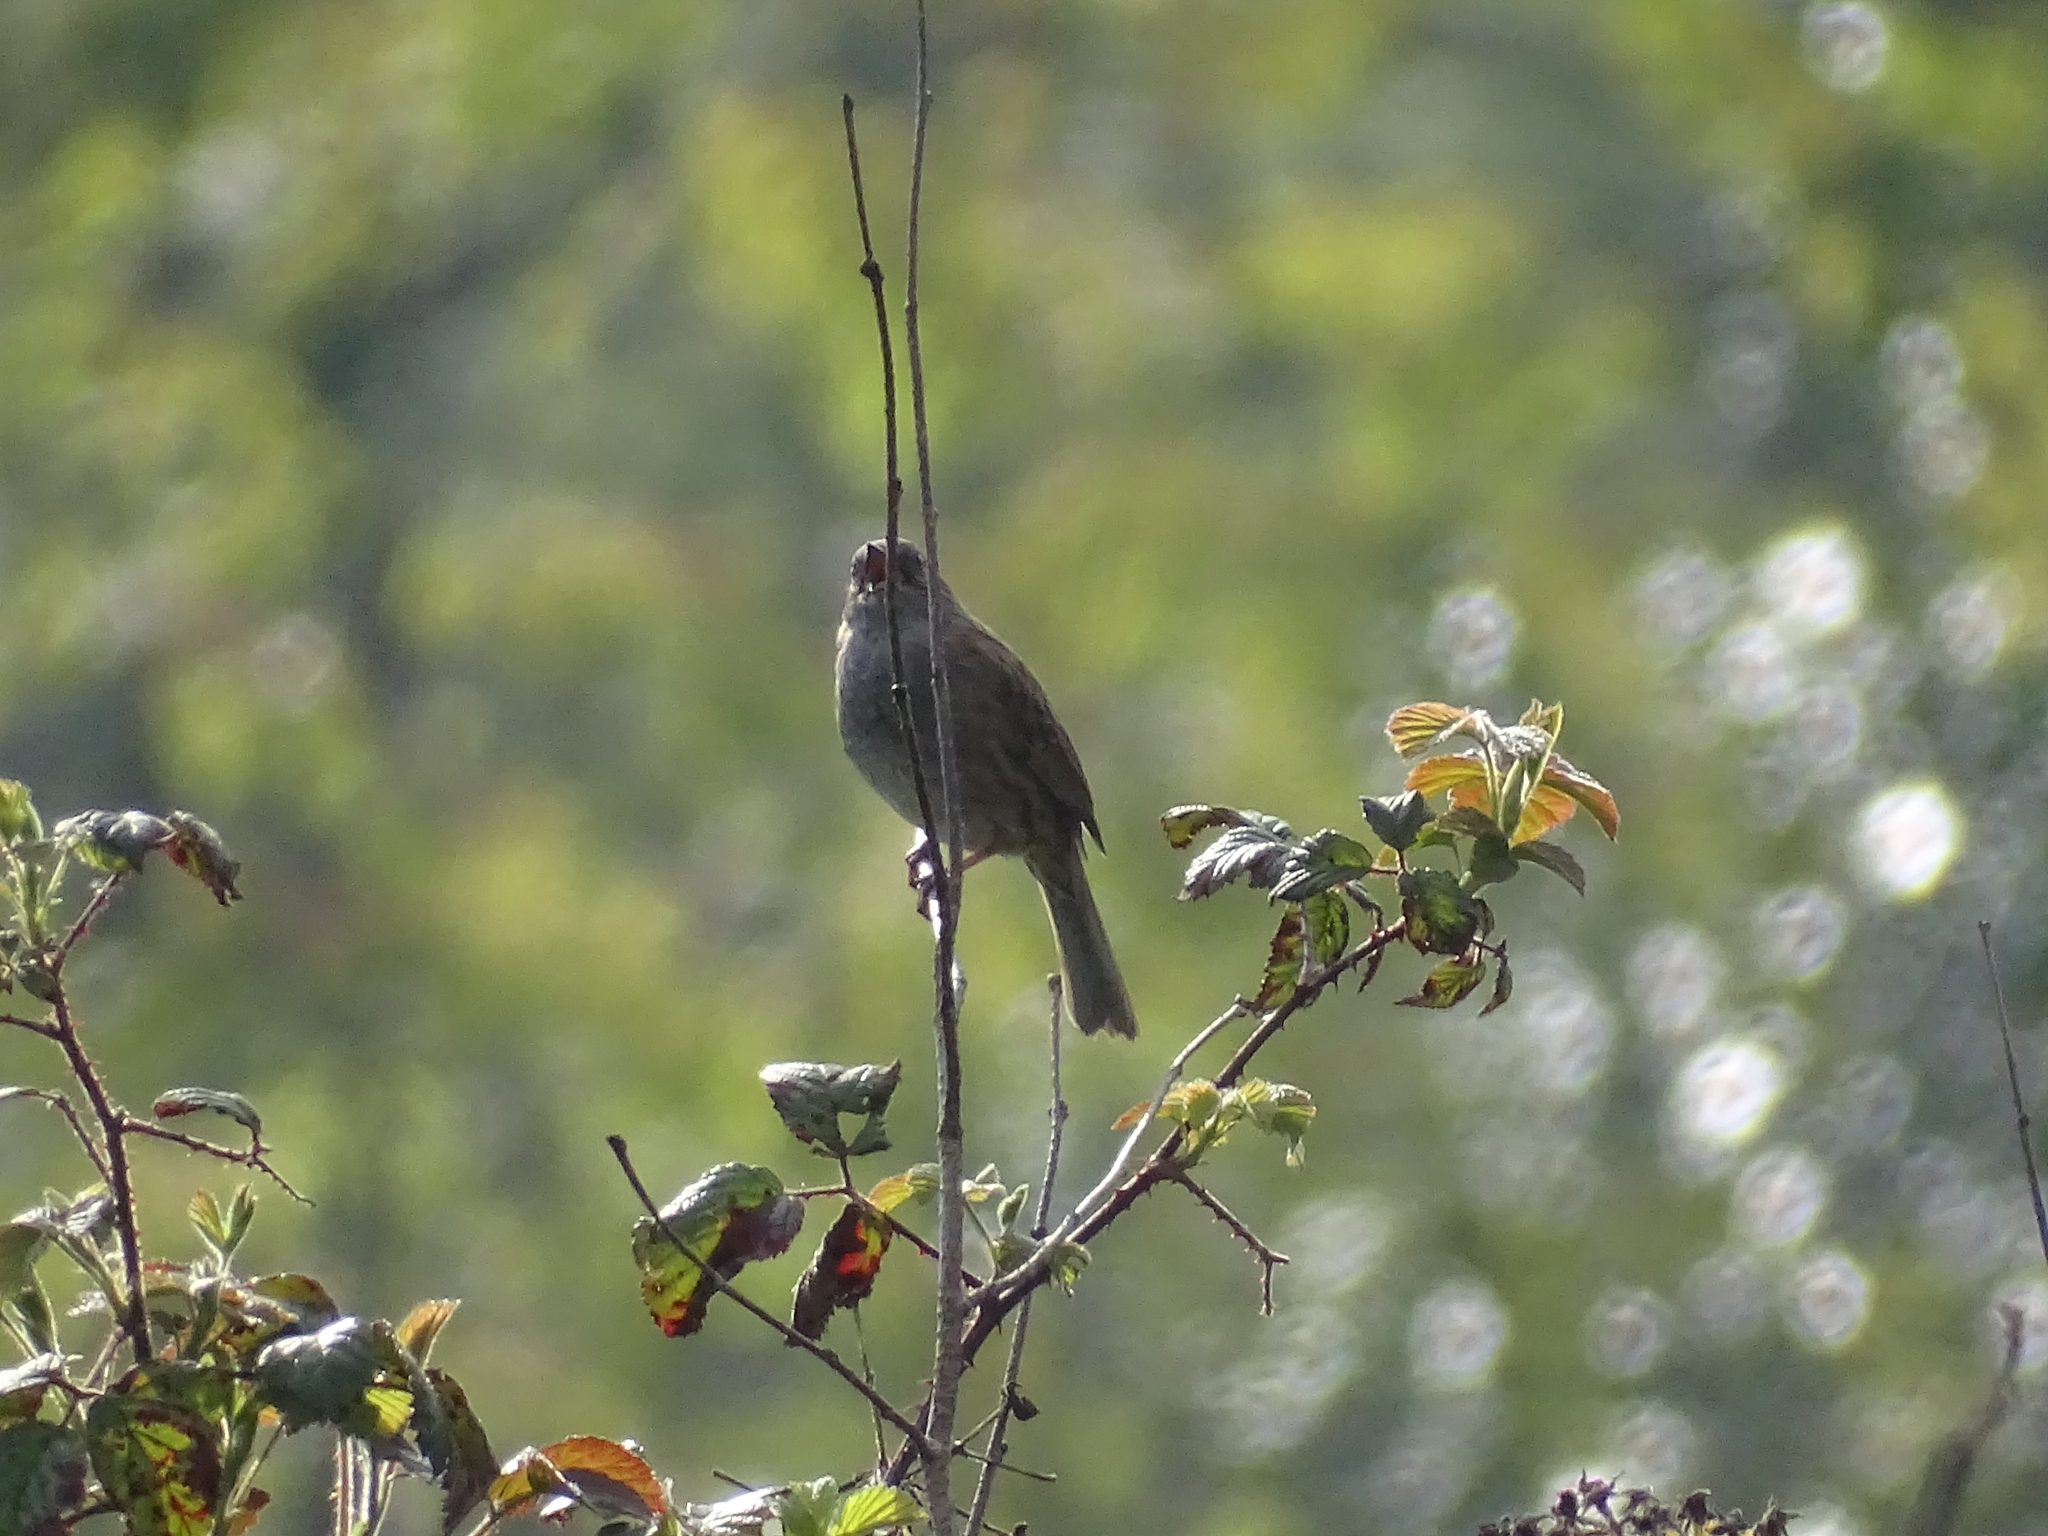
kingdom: Animalia
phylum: Chordata
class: Aves
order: Passeriformes
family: Prunellidae
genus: Prunella
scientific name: Prunella modularis
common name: Dunnock
